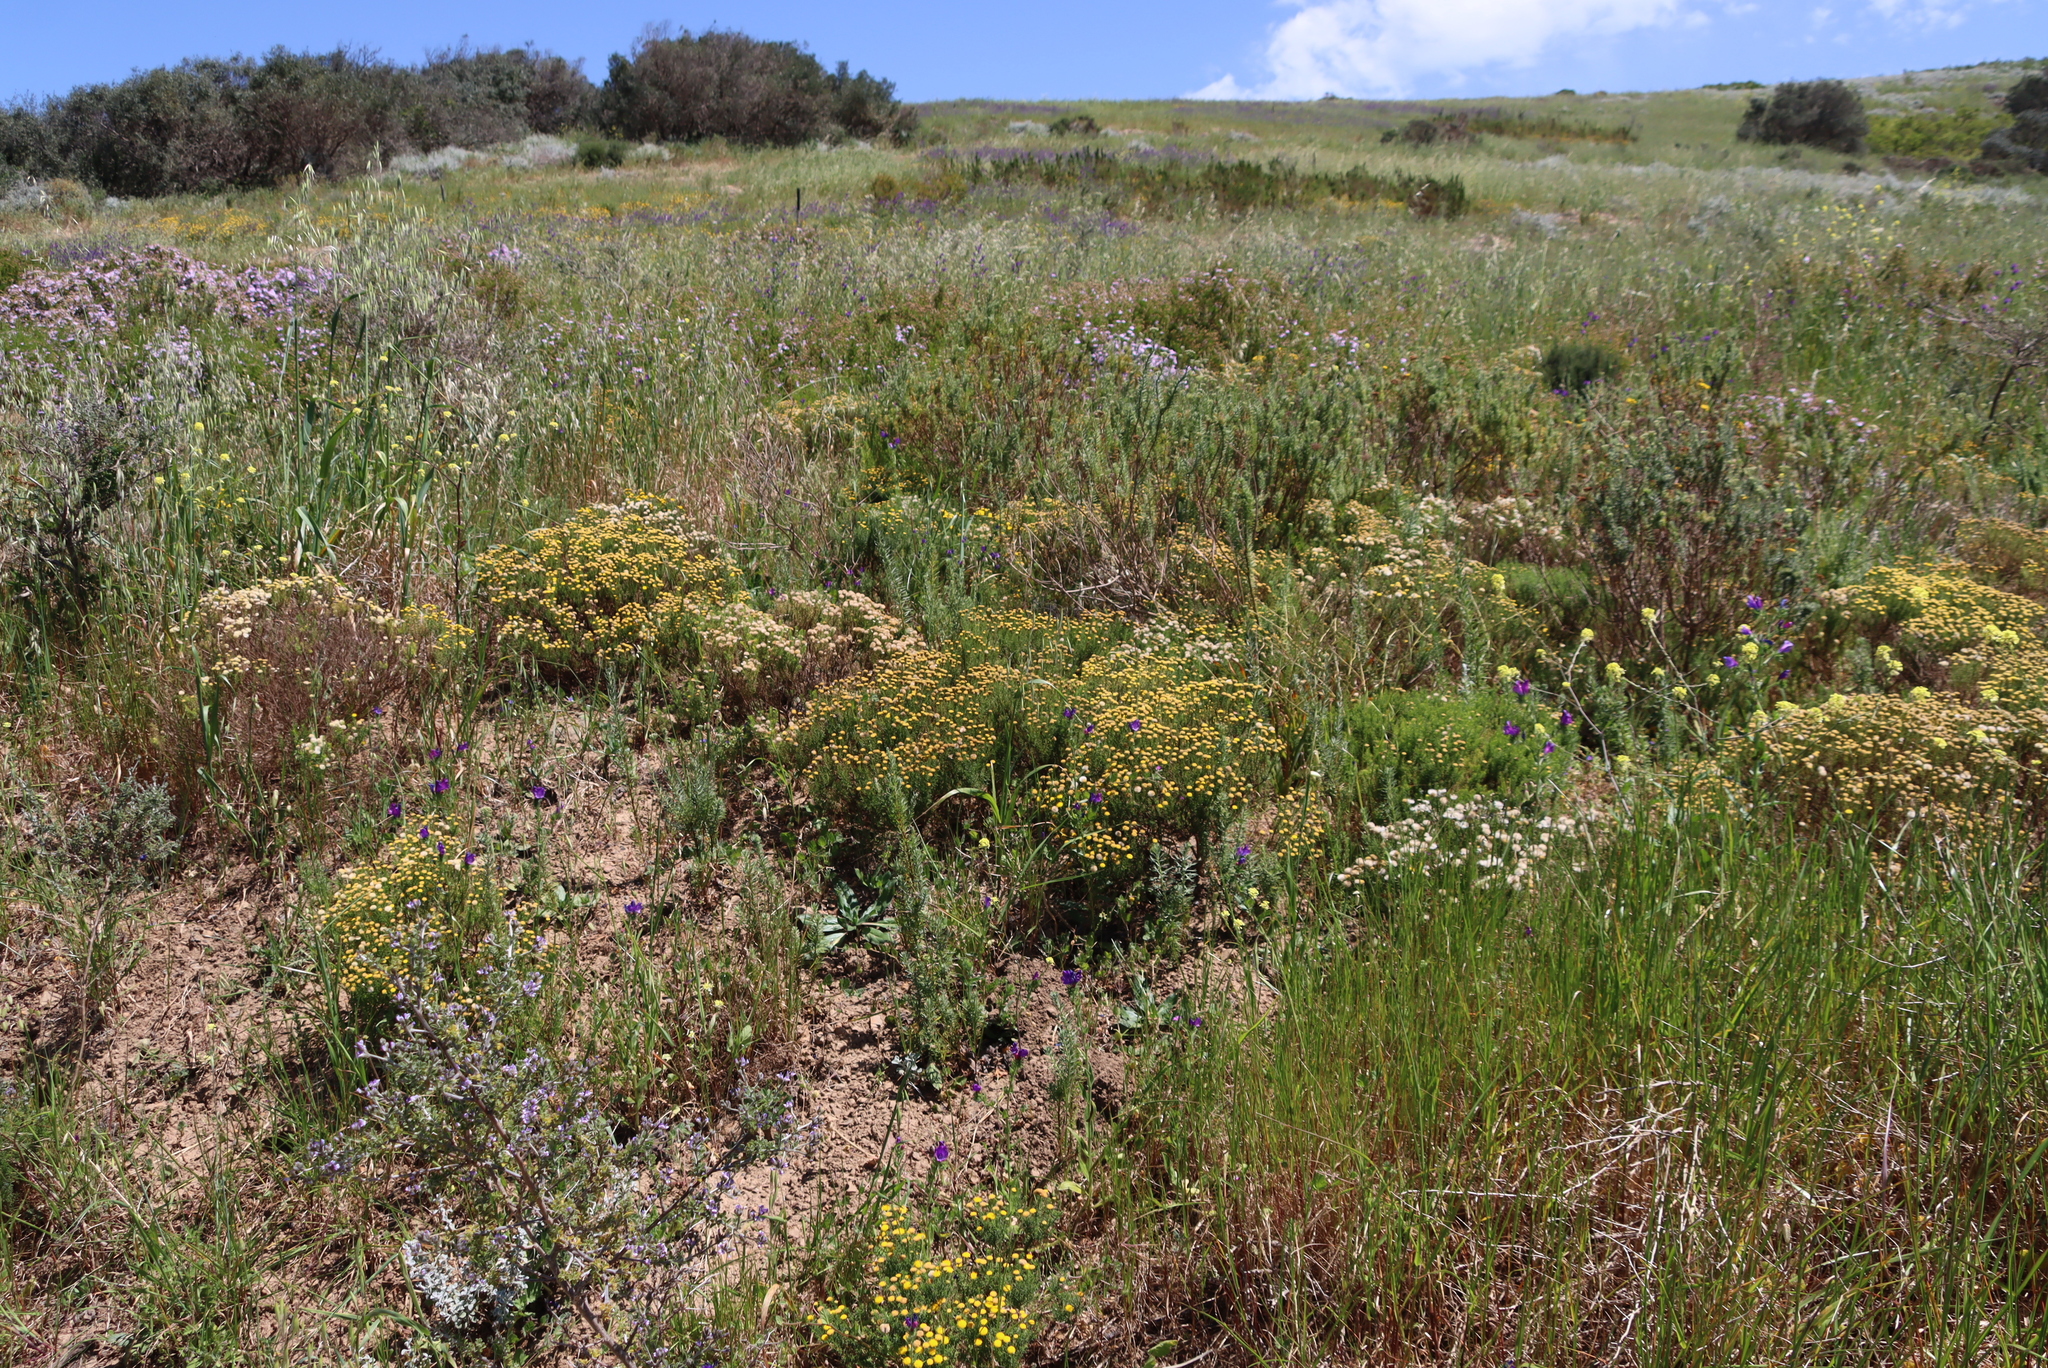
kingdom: Plantae
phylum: Tracheophyta
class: Magnoliopsida
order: Asterales
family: Asteraceae
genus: Chrysocoma
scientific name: Chrysocoma cernua
